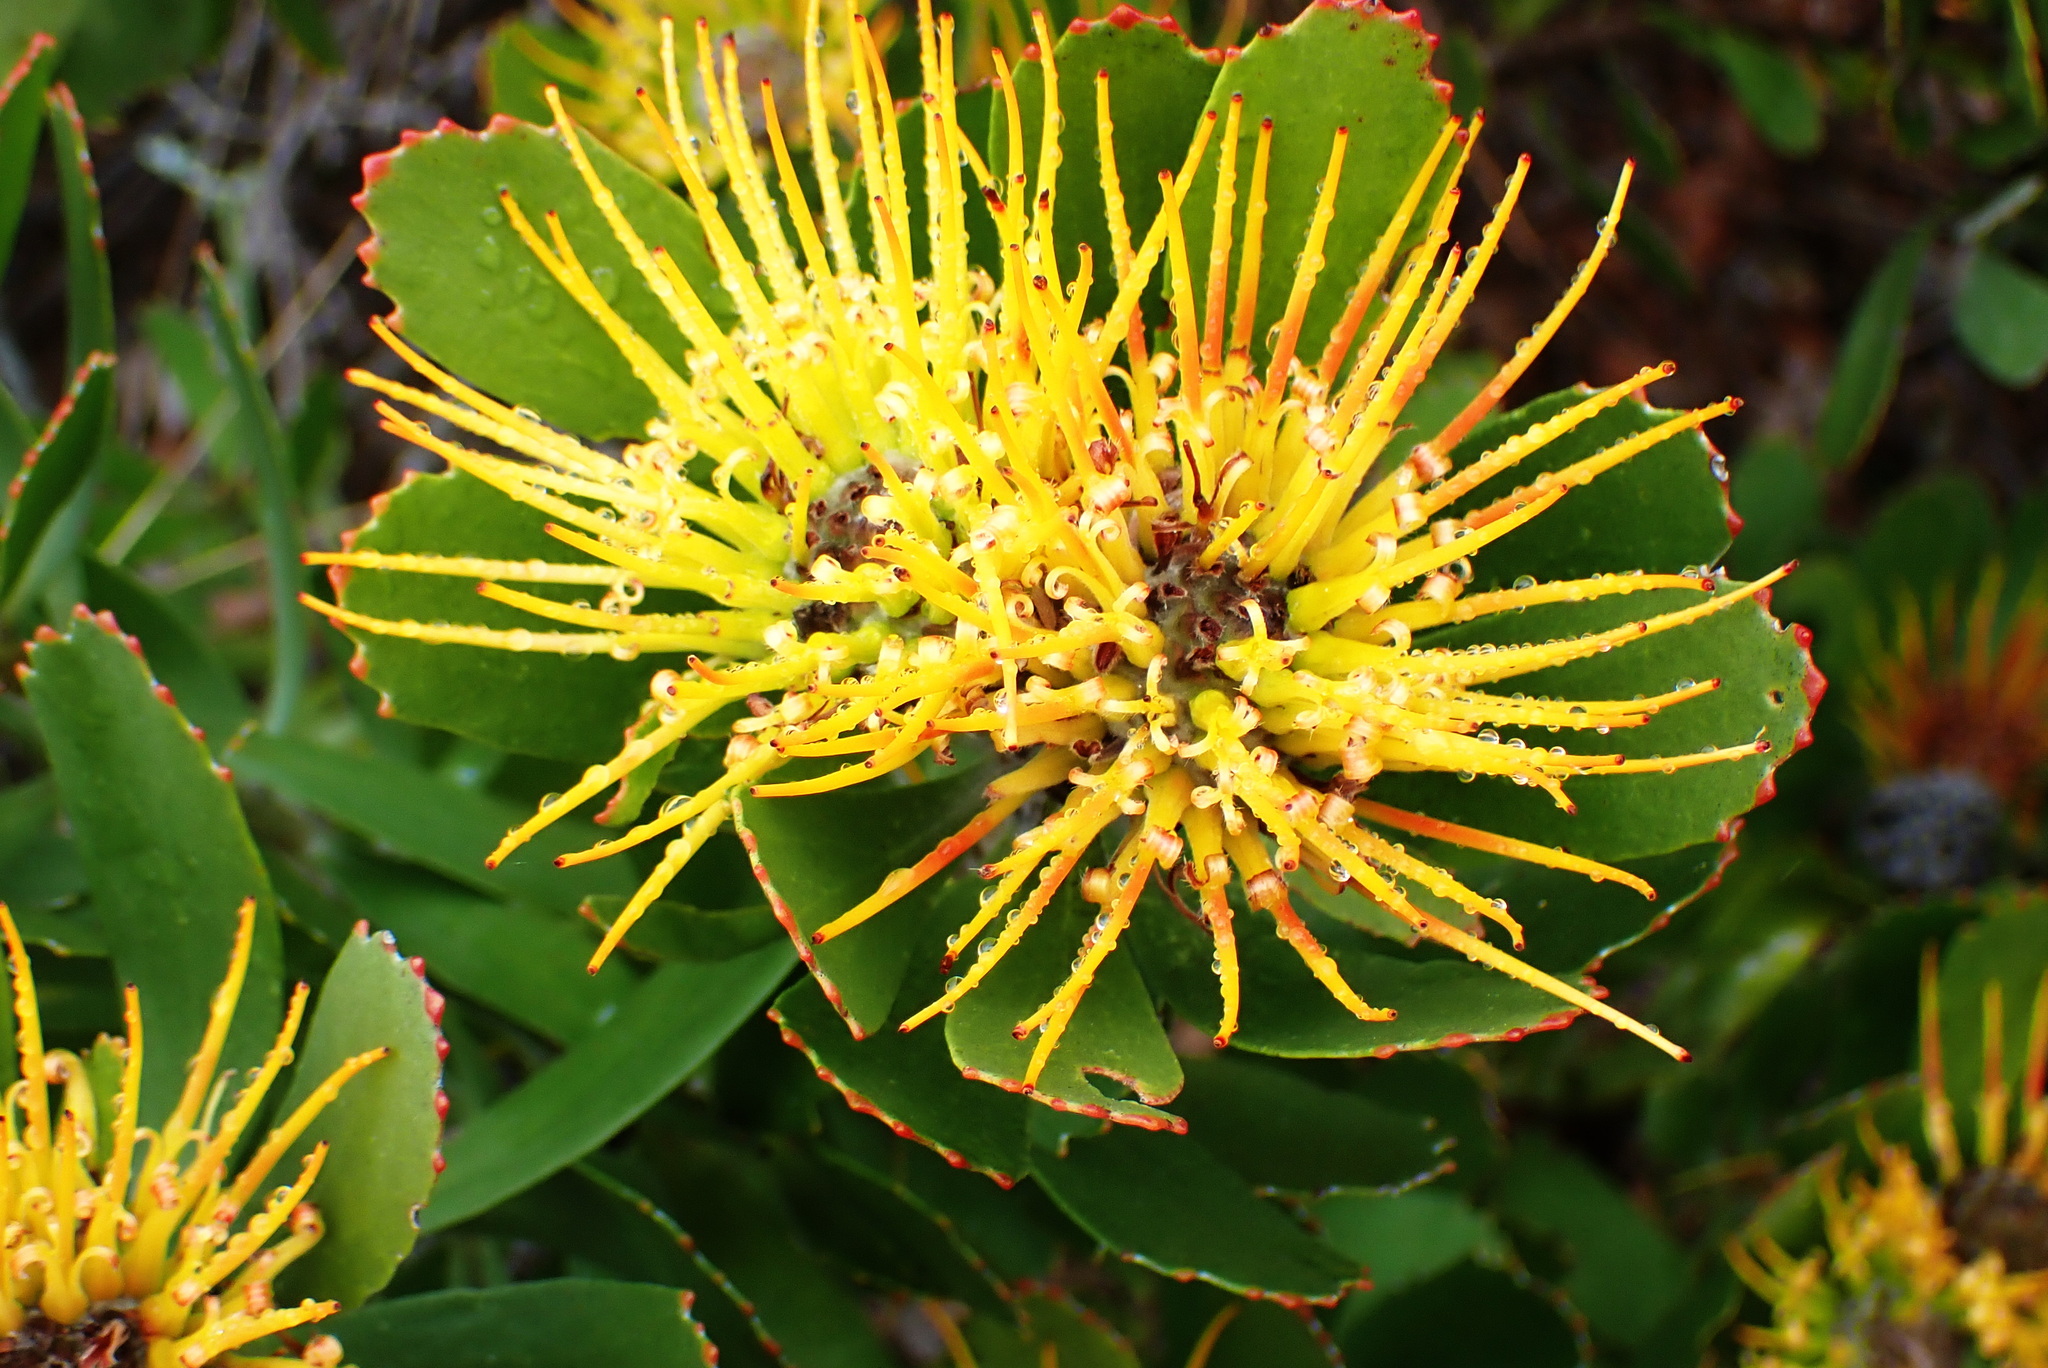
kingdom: Plantae
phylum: Tracheophyta
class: Magnoliopsida
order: Proteales
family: Proteaceae
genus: Leucospermum
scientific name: Leucospermum praecox
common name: Mossel bay pincushion
